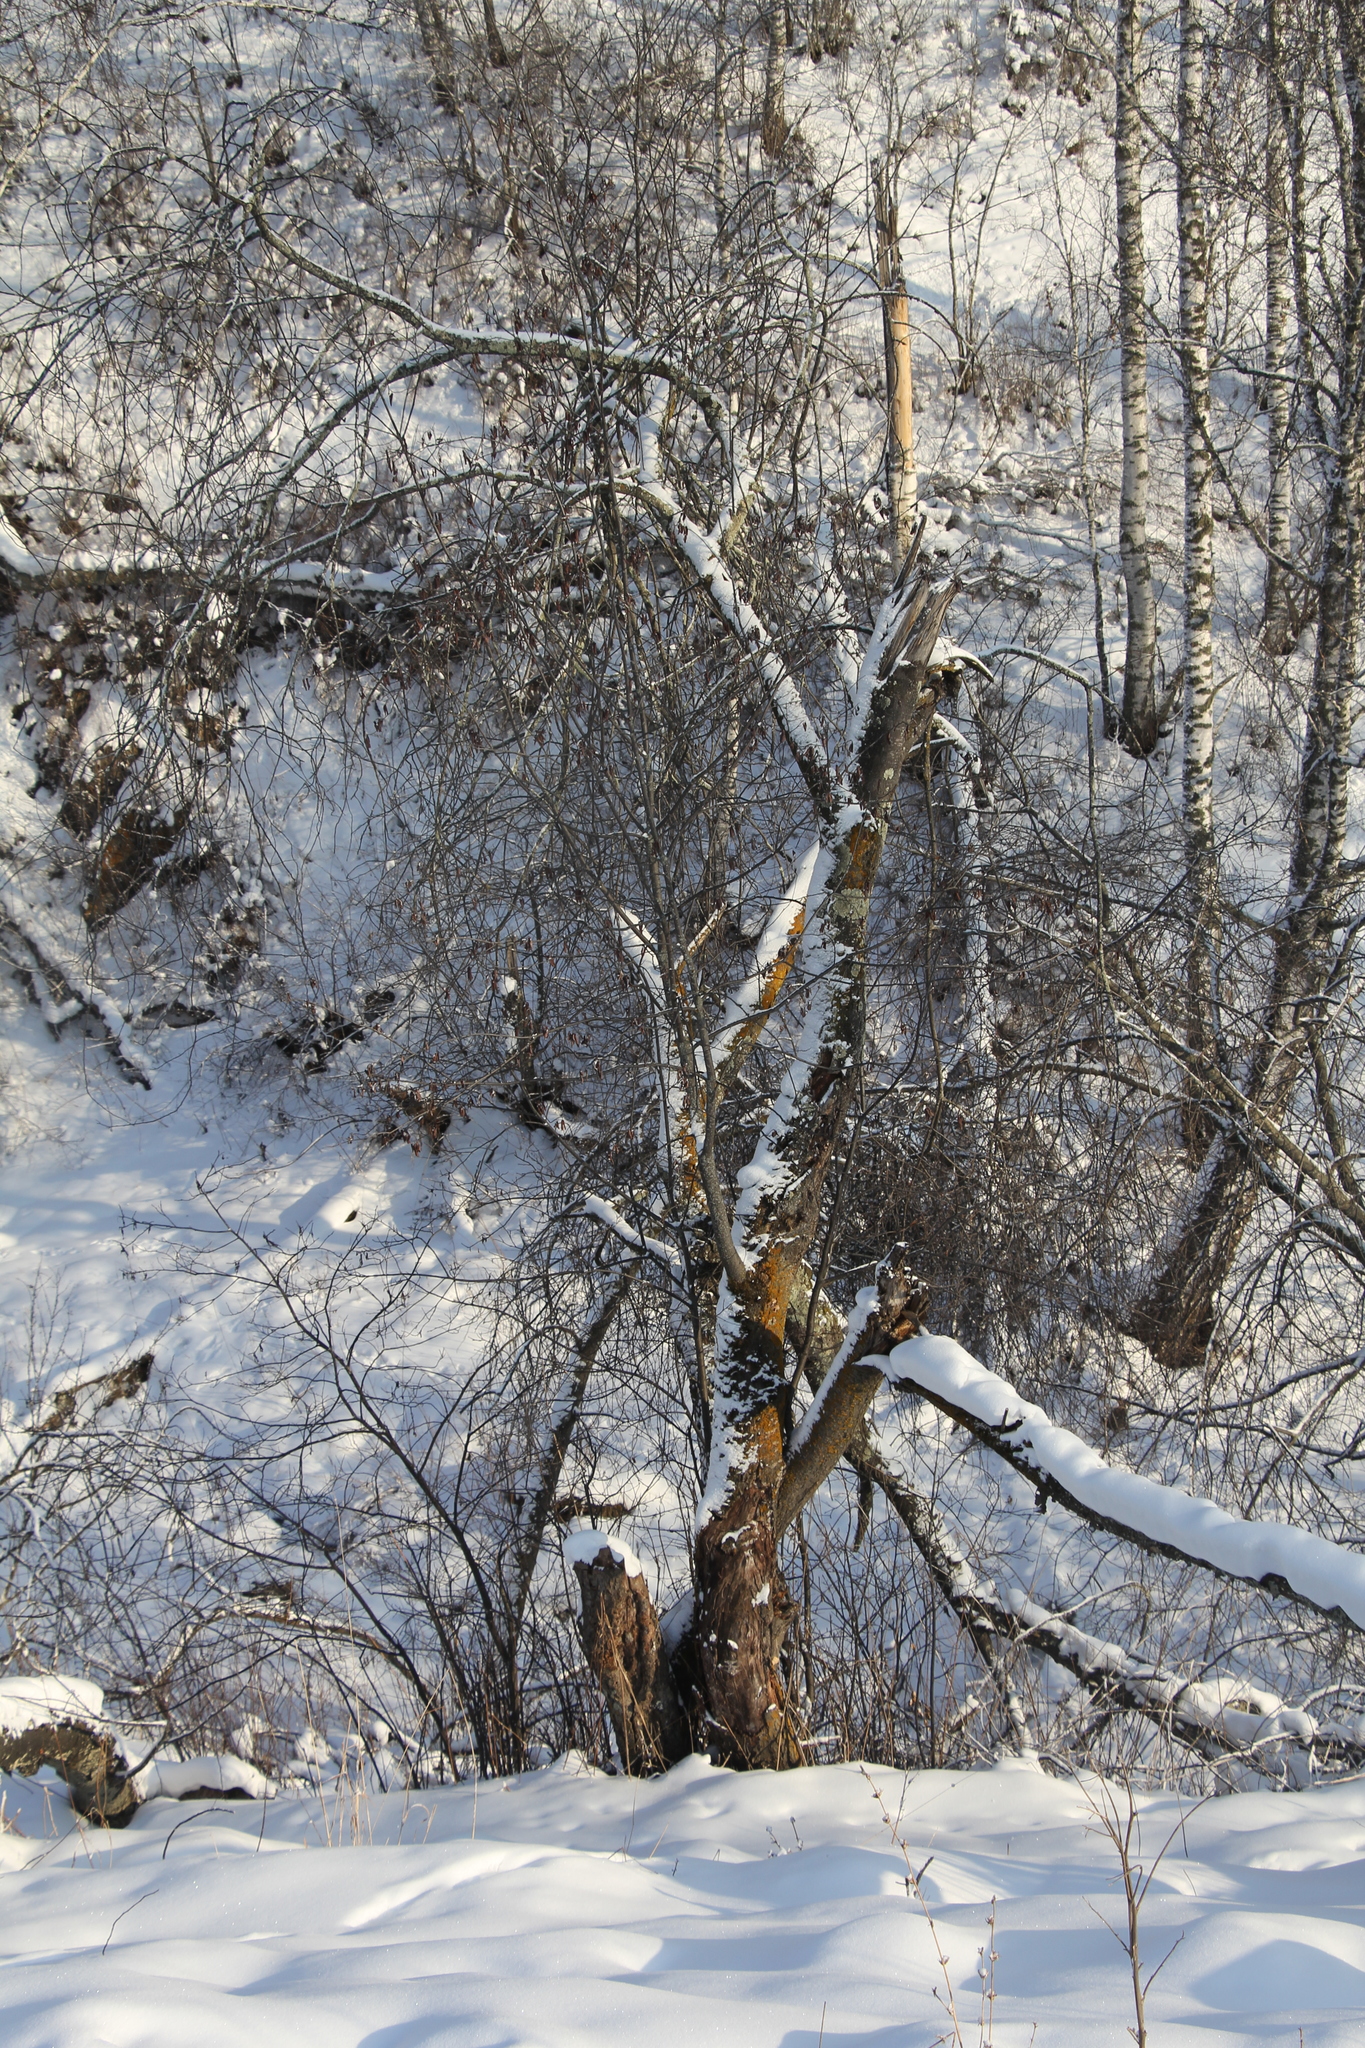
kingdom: Plantae
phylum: Tracheophyta
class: Magnoliopsida
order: Rosales
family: Rosaceae
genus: Prunus
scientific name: Prunus padus
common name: Bird cherry
